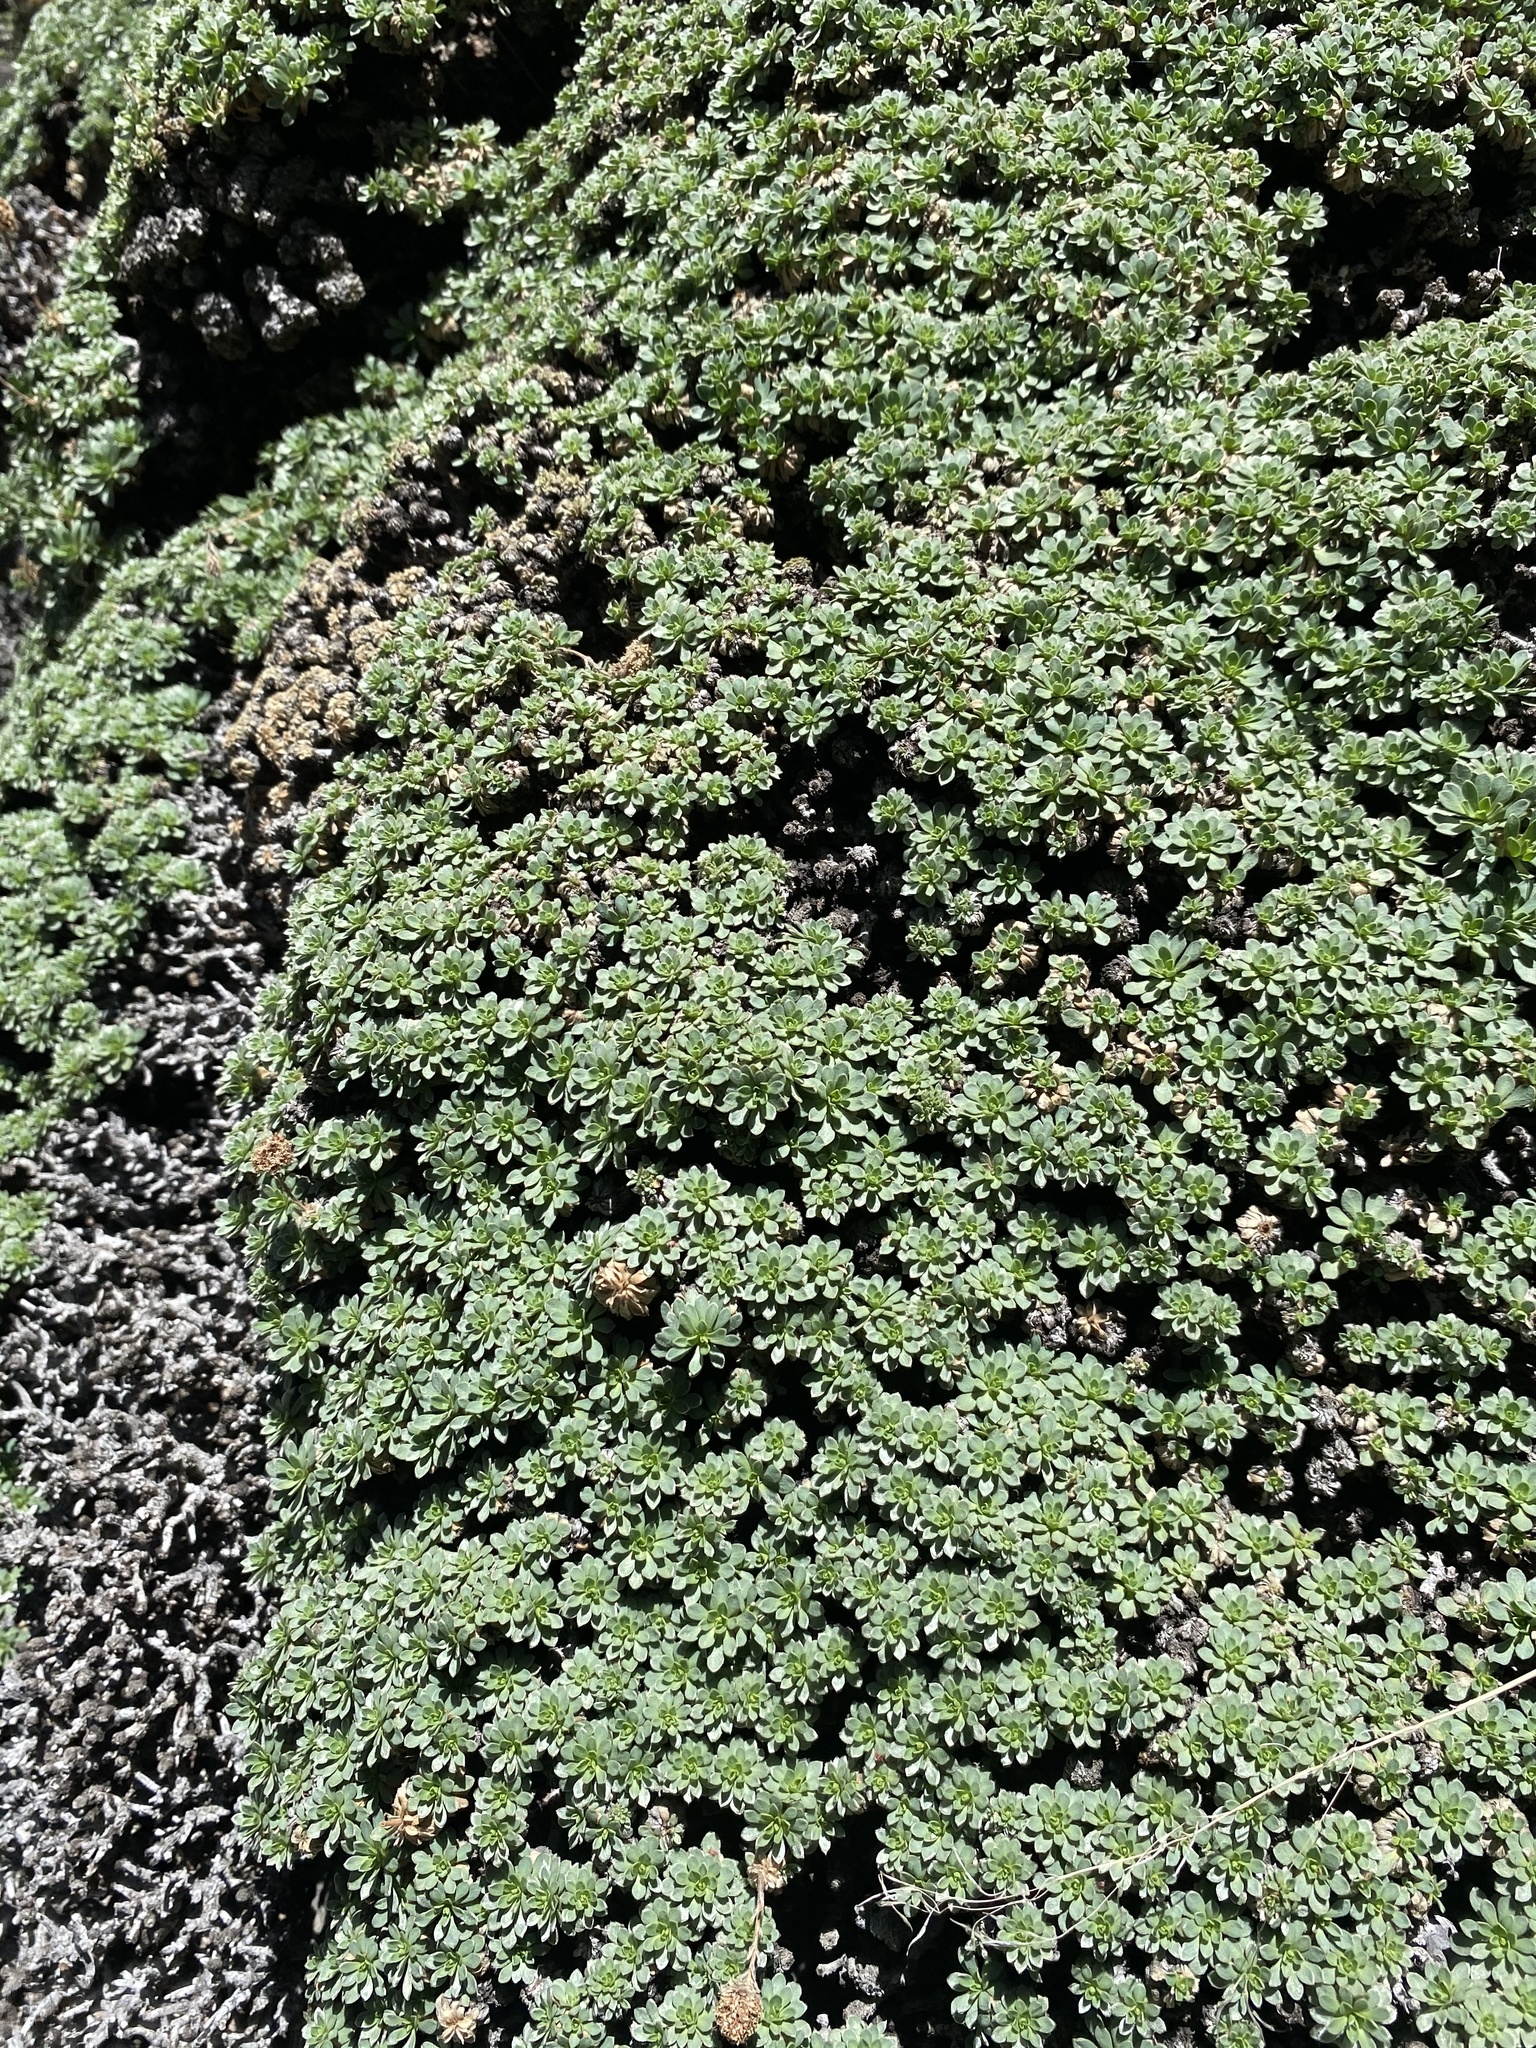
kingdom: Plantae
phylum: Tracheophyta
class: Magnoliopsida
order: Rosales
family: Rosaceae
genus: Petrophytum
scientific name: Petrophytum caespitosum
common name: Mat rockspirea
